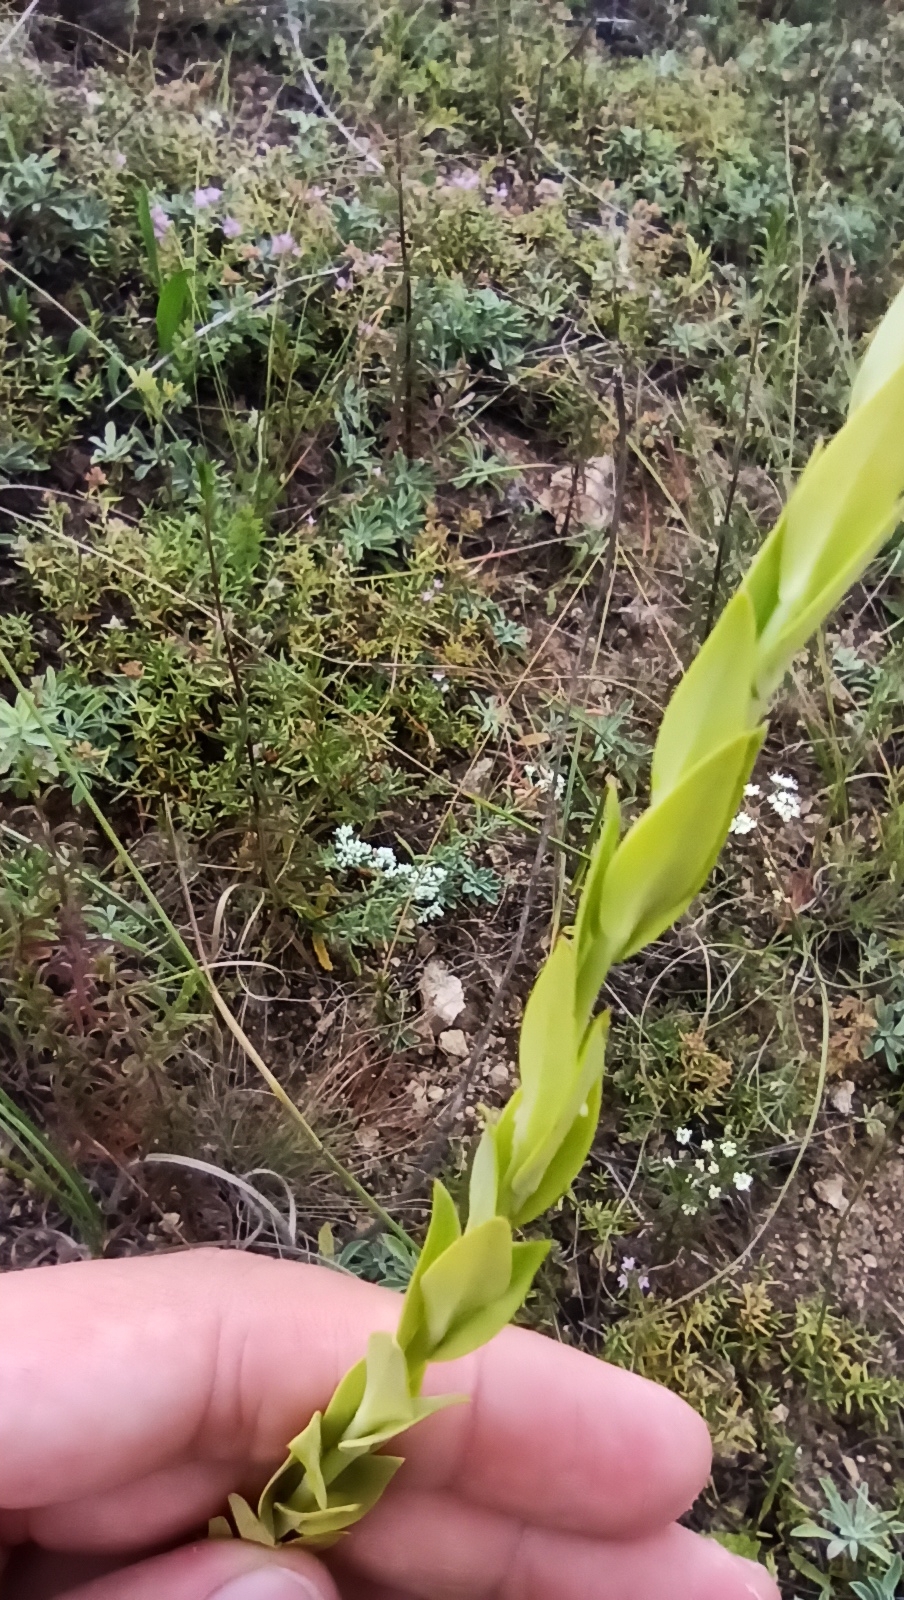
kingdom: Plantae
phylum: Tracheophyta
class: Magnoliopsida
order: Lamiales
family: Plantaginaceae
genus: Linaria
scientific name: Linaria genistifolia
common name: Broomleaf toadflax
